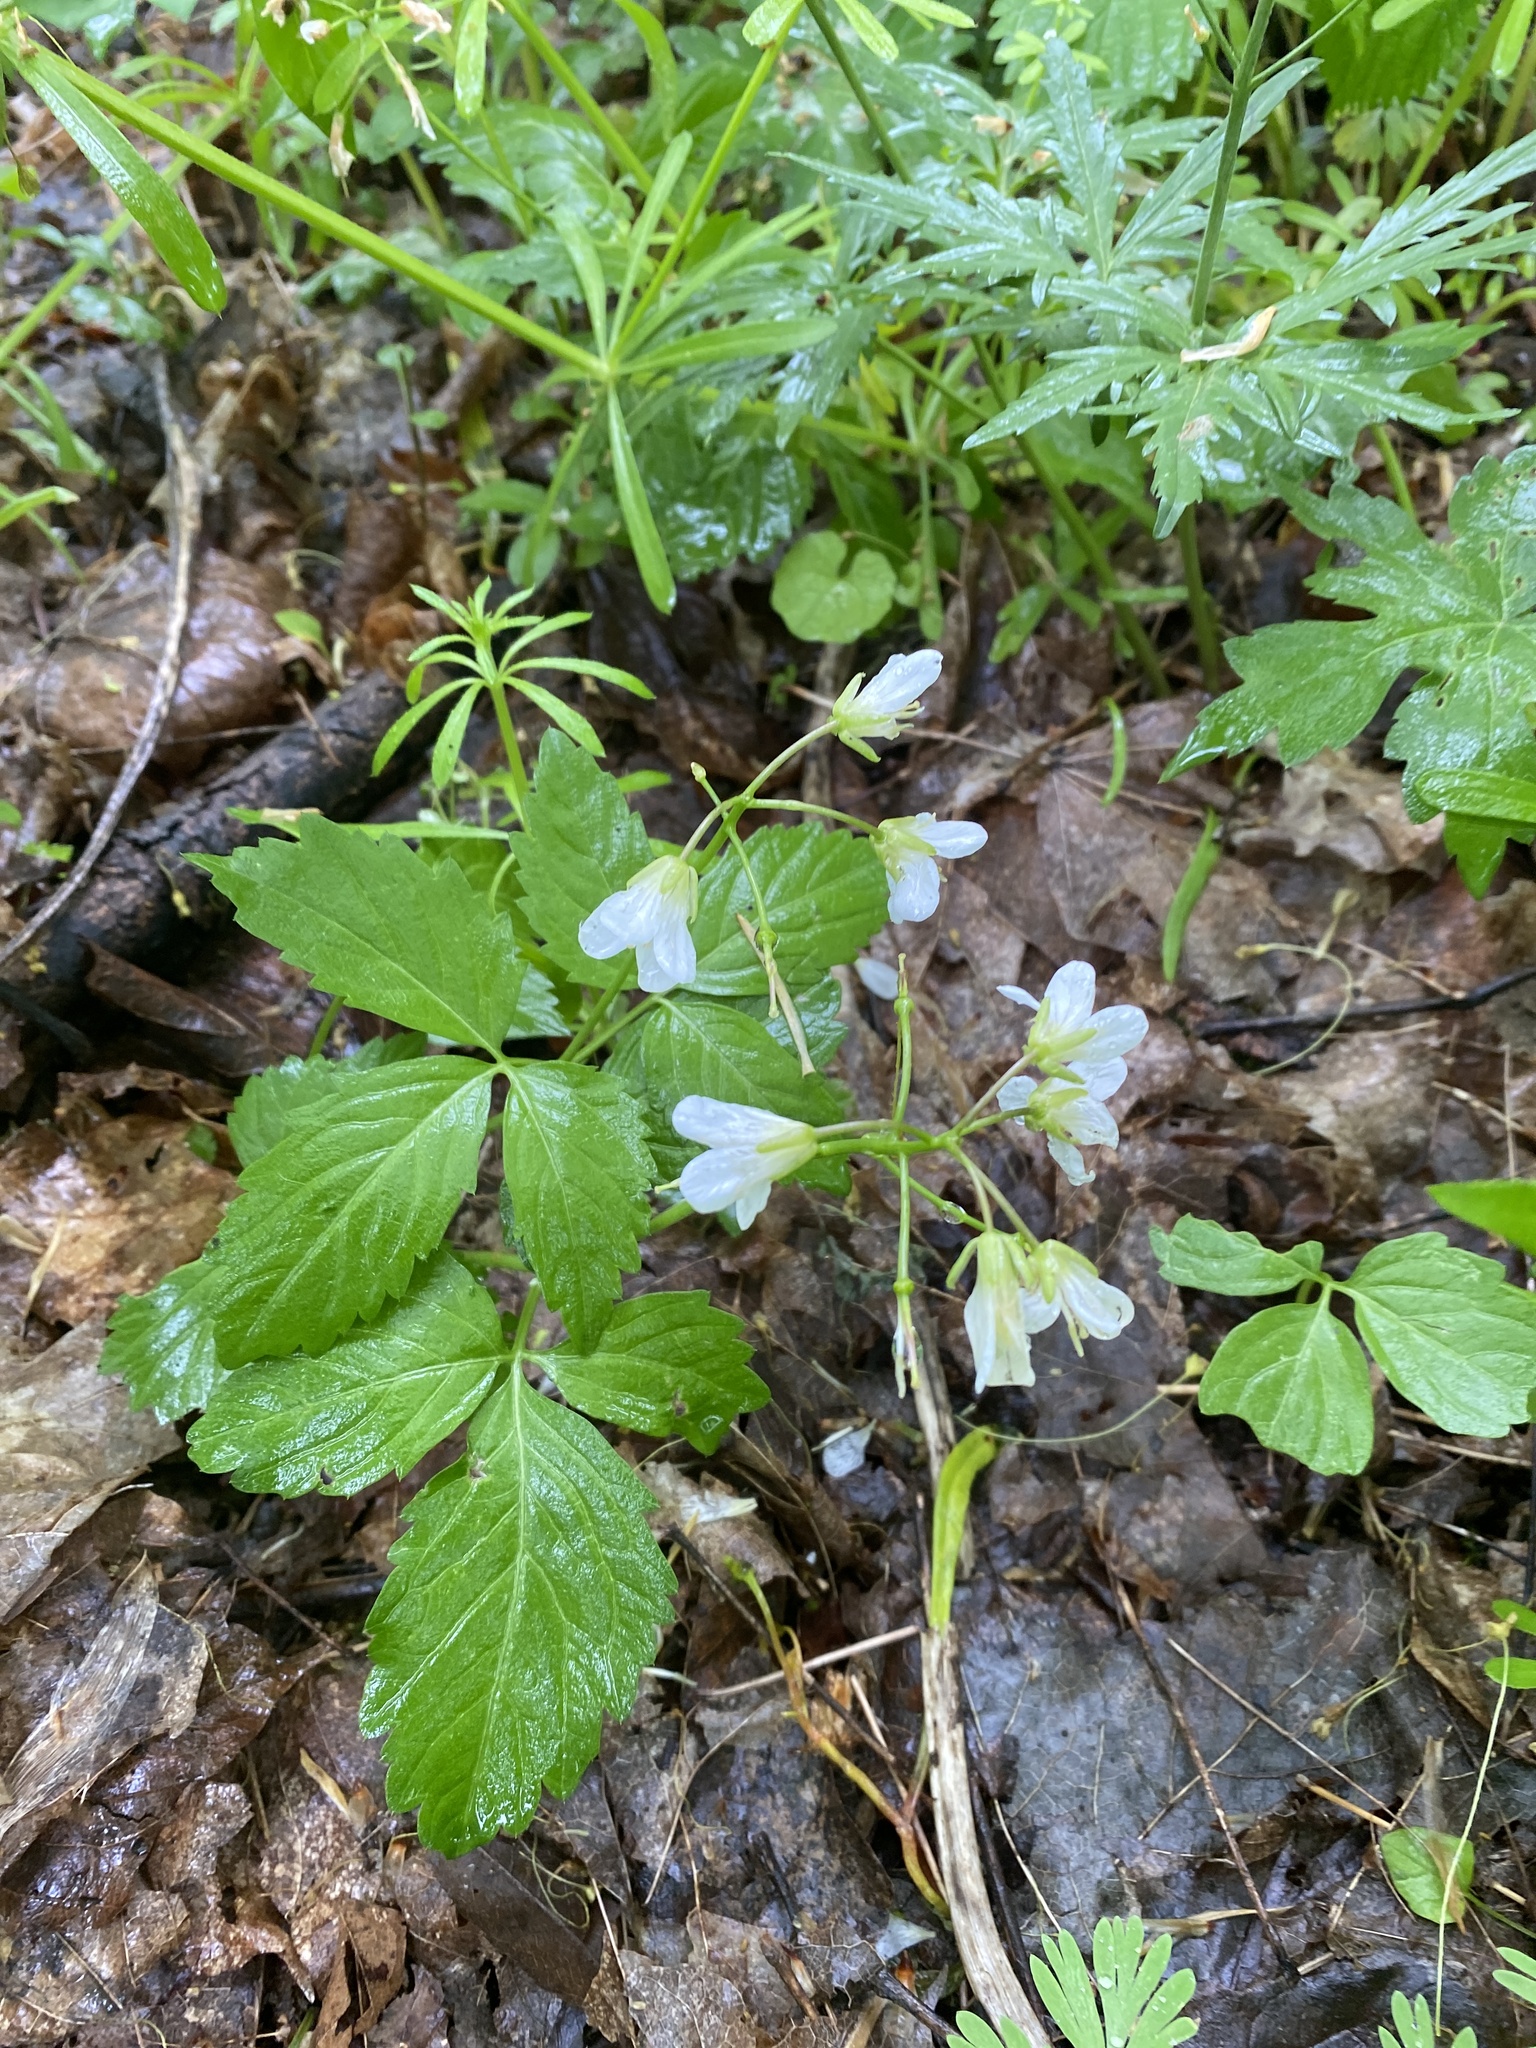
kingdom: Plantae
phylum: Tracheophyta
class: Magnoliopsida
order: Brassicales
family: Brassicaceae
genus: Cardamine
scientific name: Cardamine diphylla
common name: Broad-leaved toothwort
